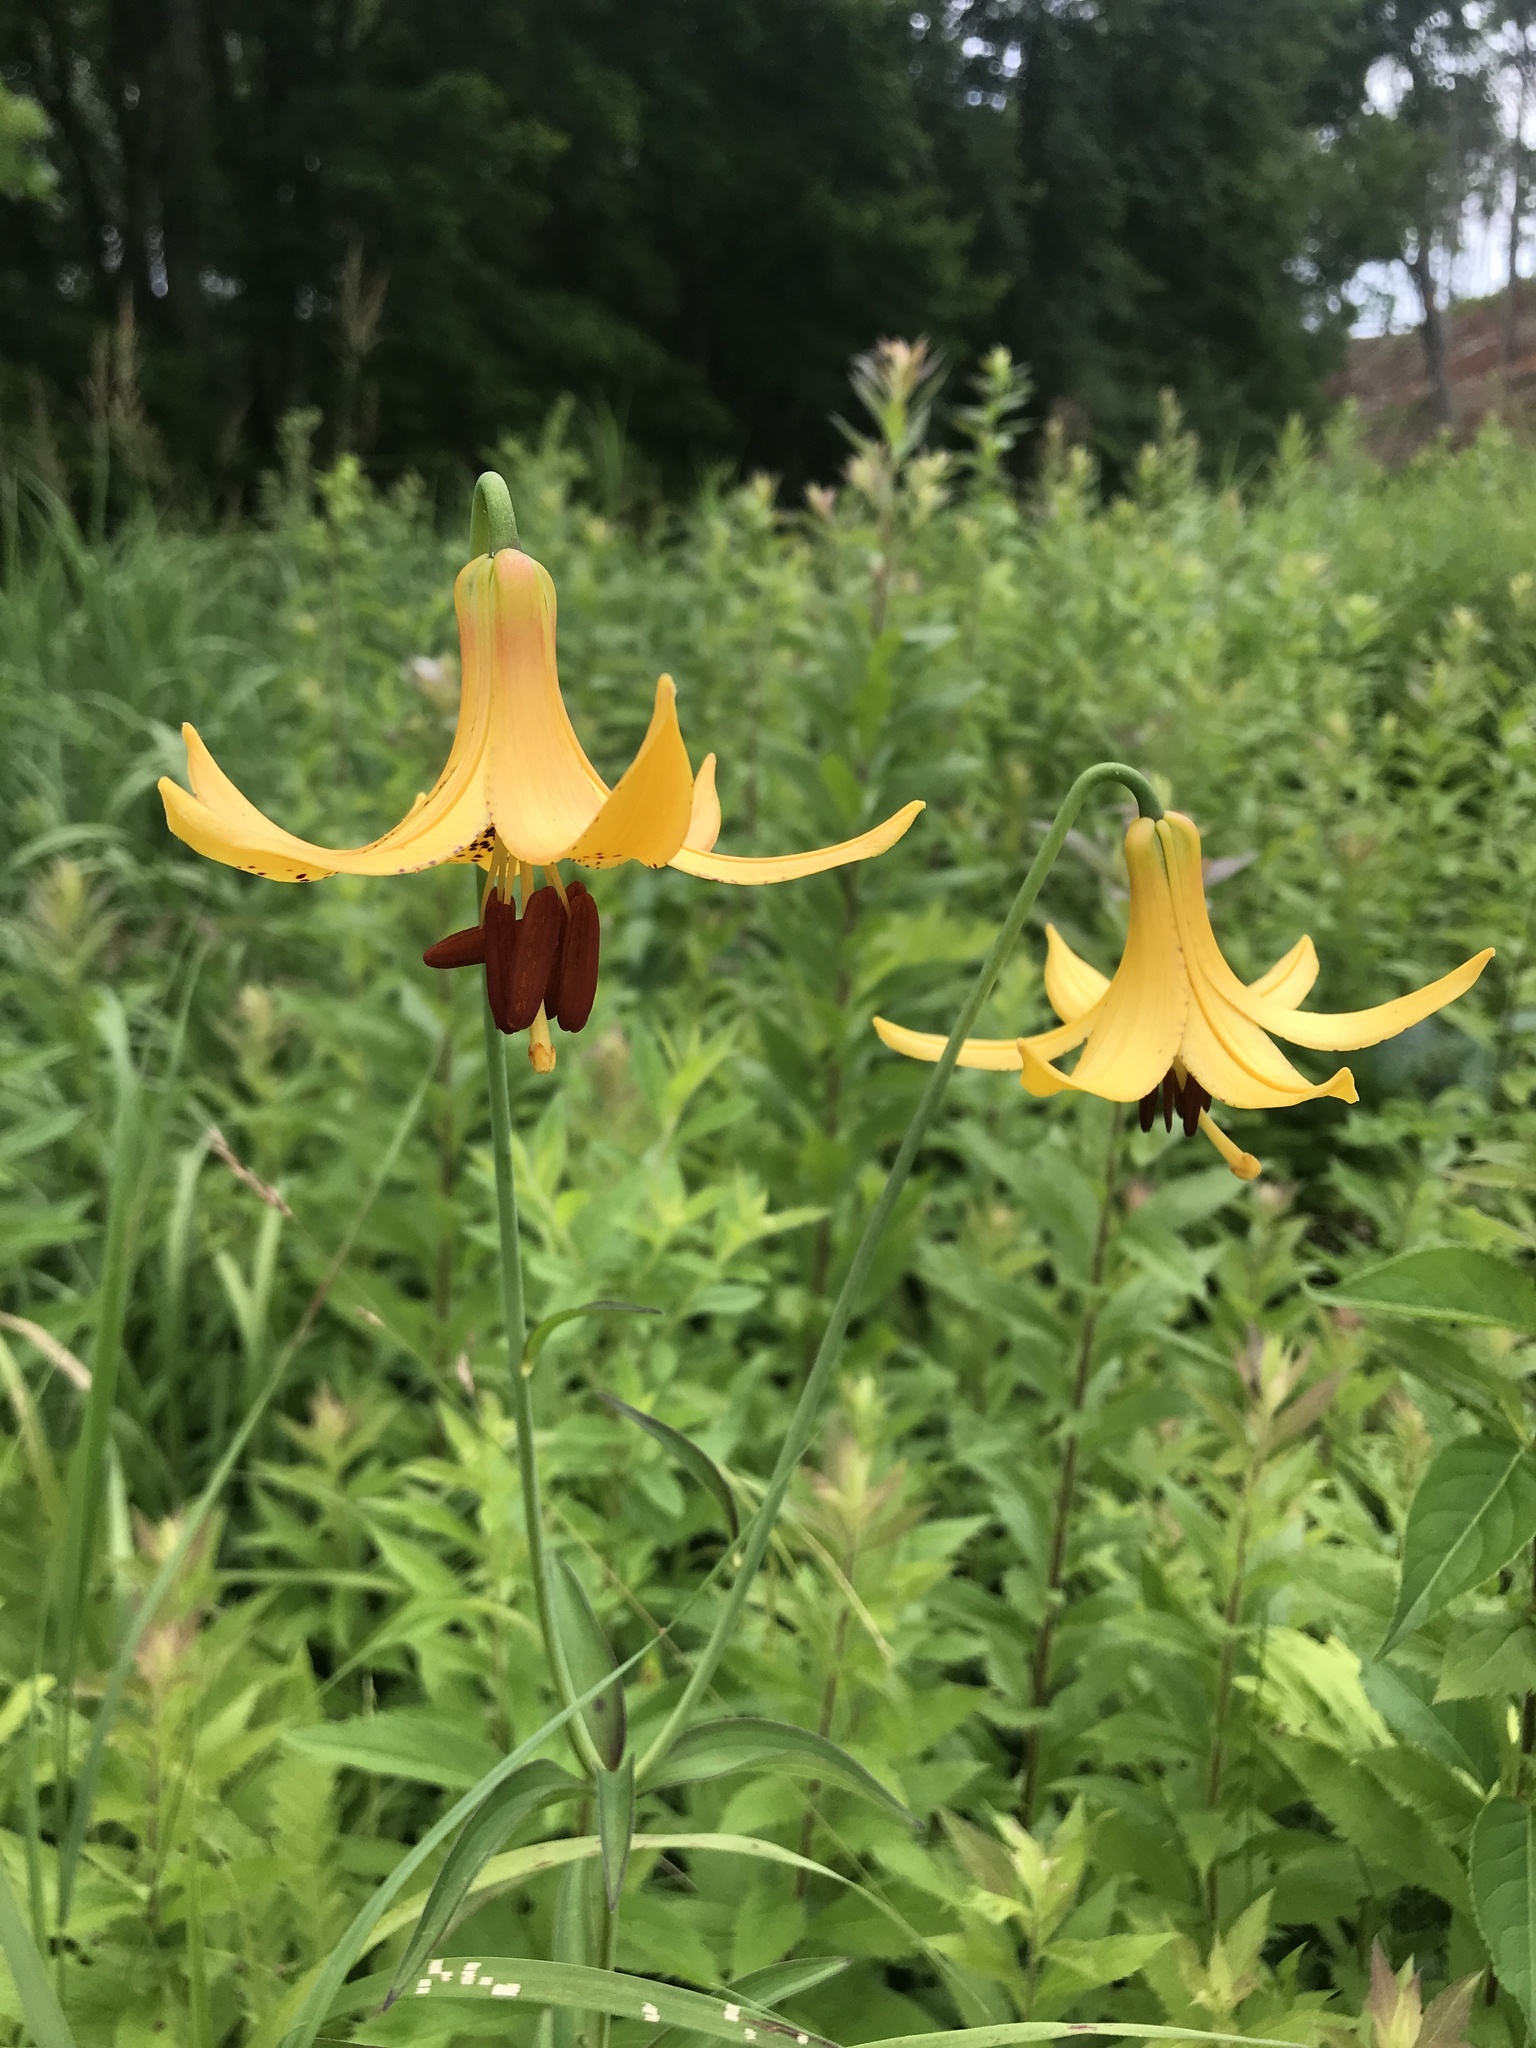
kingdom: Plantae
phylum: Tracheophyta
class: Liliopsida
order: Liliales
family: Liliaceae
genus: Lilium
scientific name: Lilium canadense
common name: Canada lily
